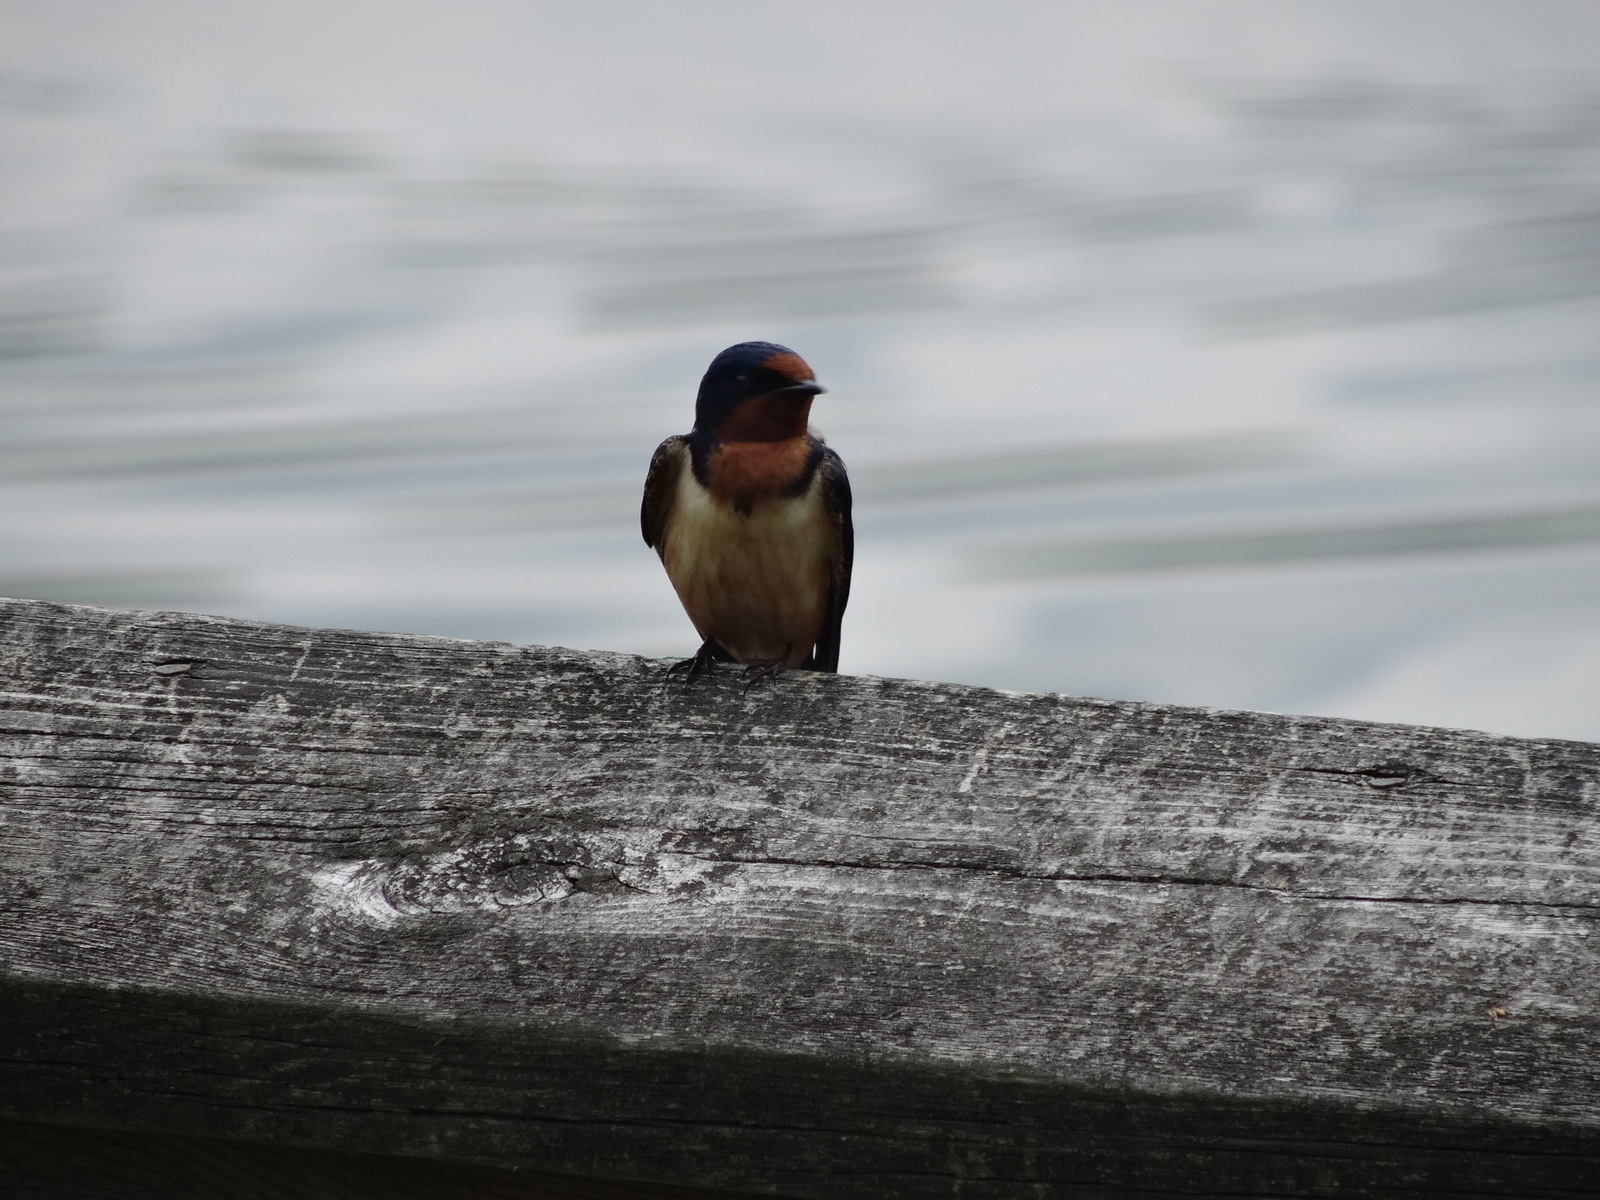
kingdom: Animalia
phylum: Chordata
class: Aves
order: Passeriformes
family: Hirundinidae
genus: Hirundo
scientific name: Hirundo rustica
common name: Barn swallow
